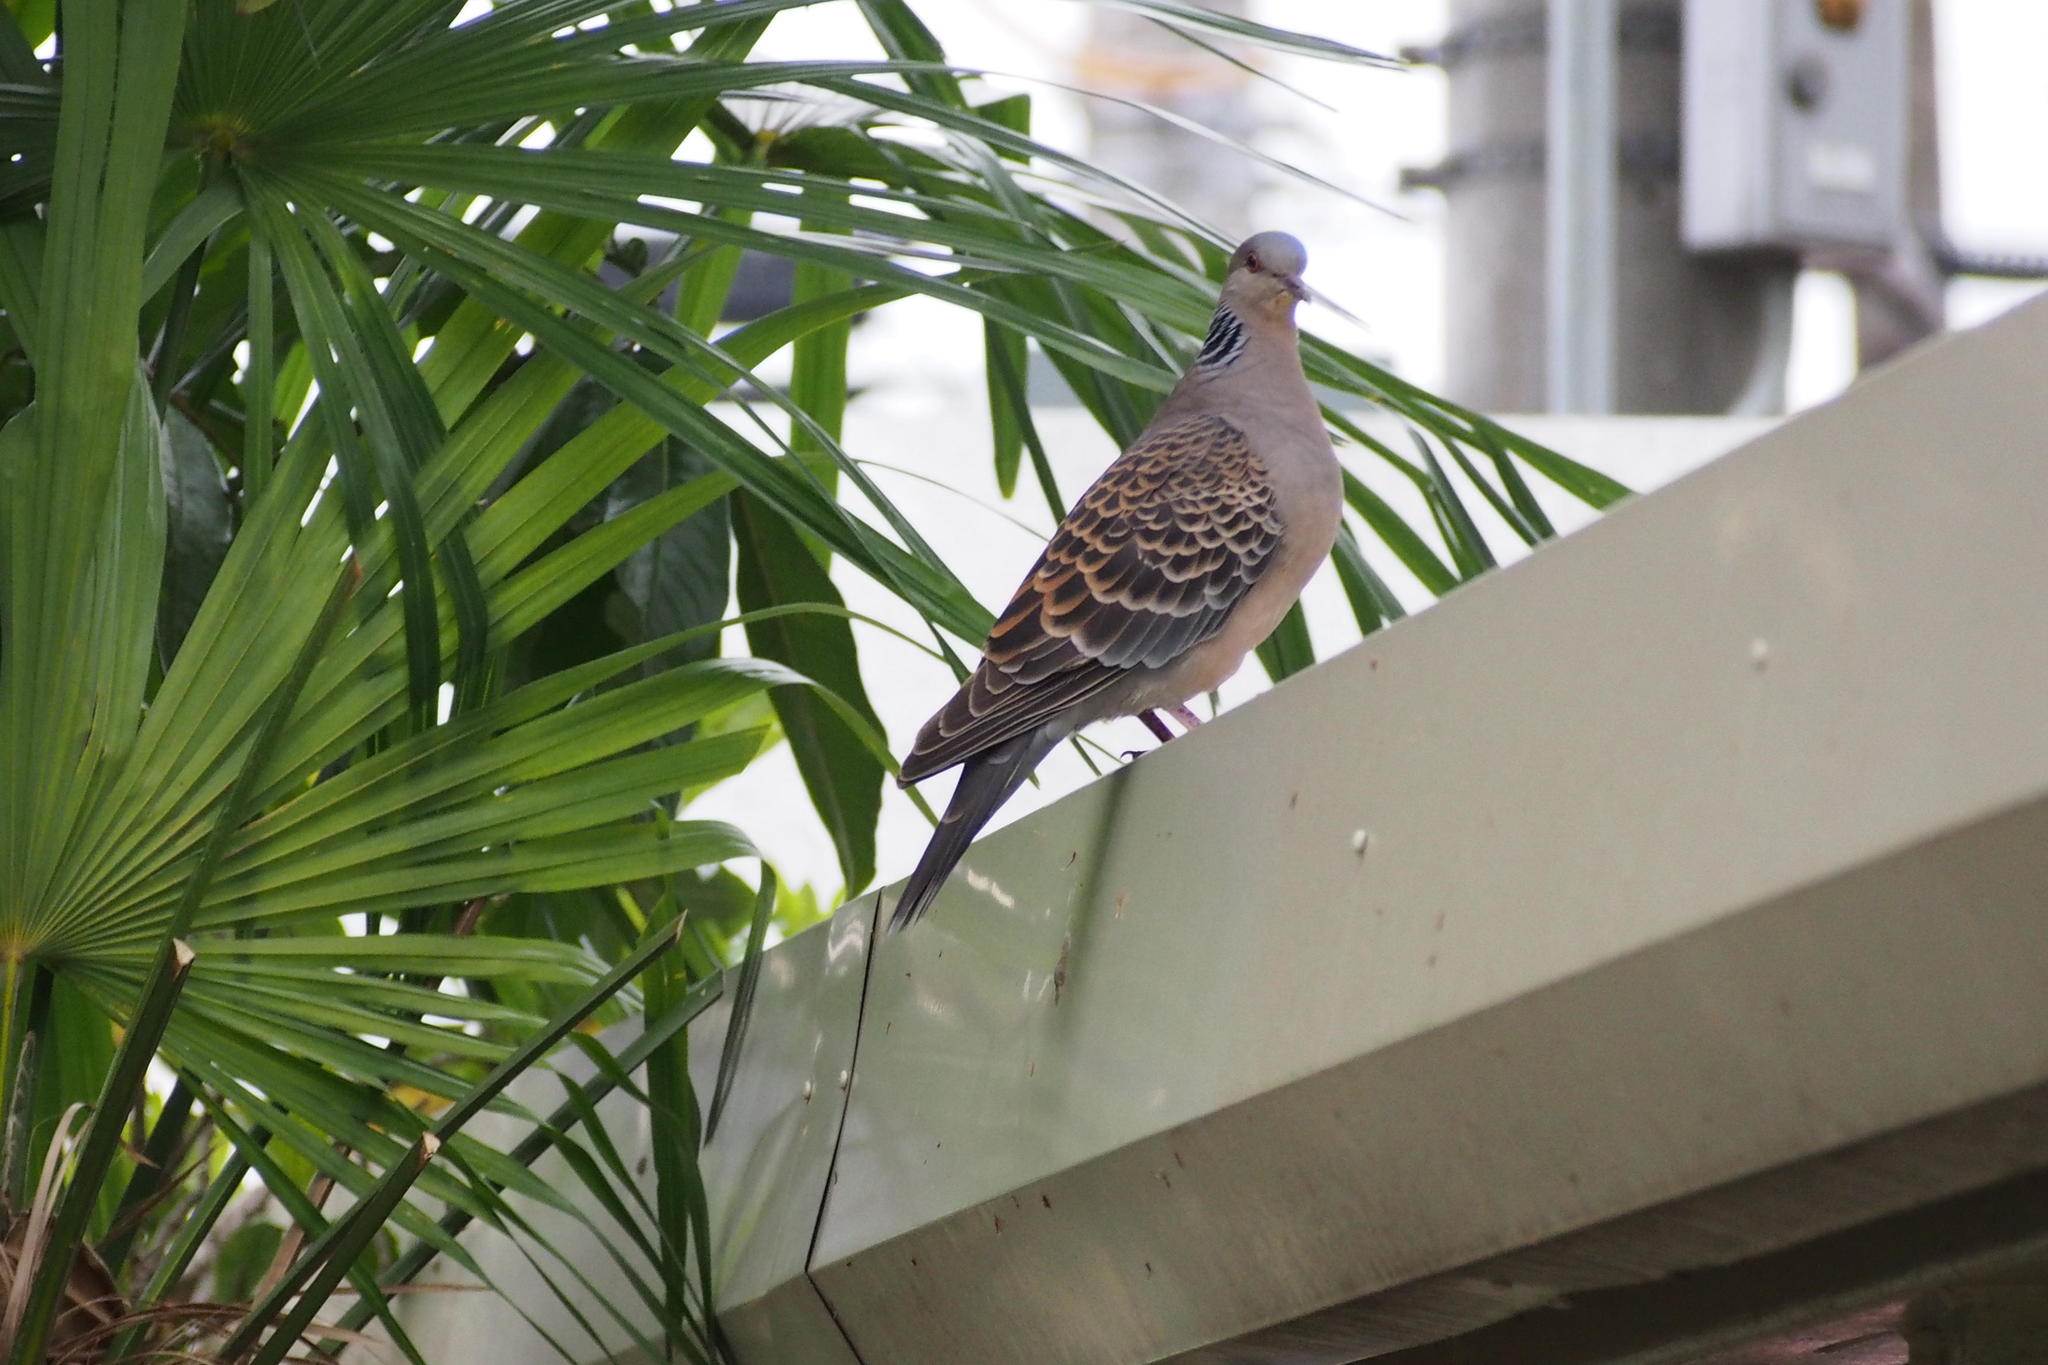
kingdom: Animalia
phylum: Chordata
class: Aves
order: Columbiformes
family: Columbidae
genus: Streptopelia
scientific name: Streptopelia orientalis
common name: Oriental turtle dove
